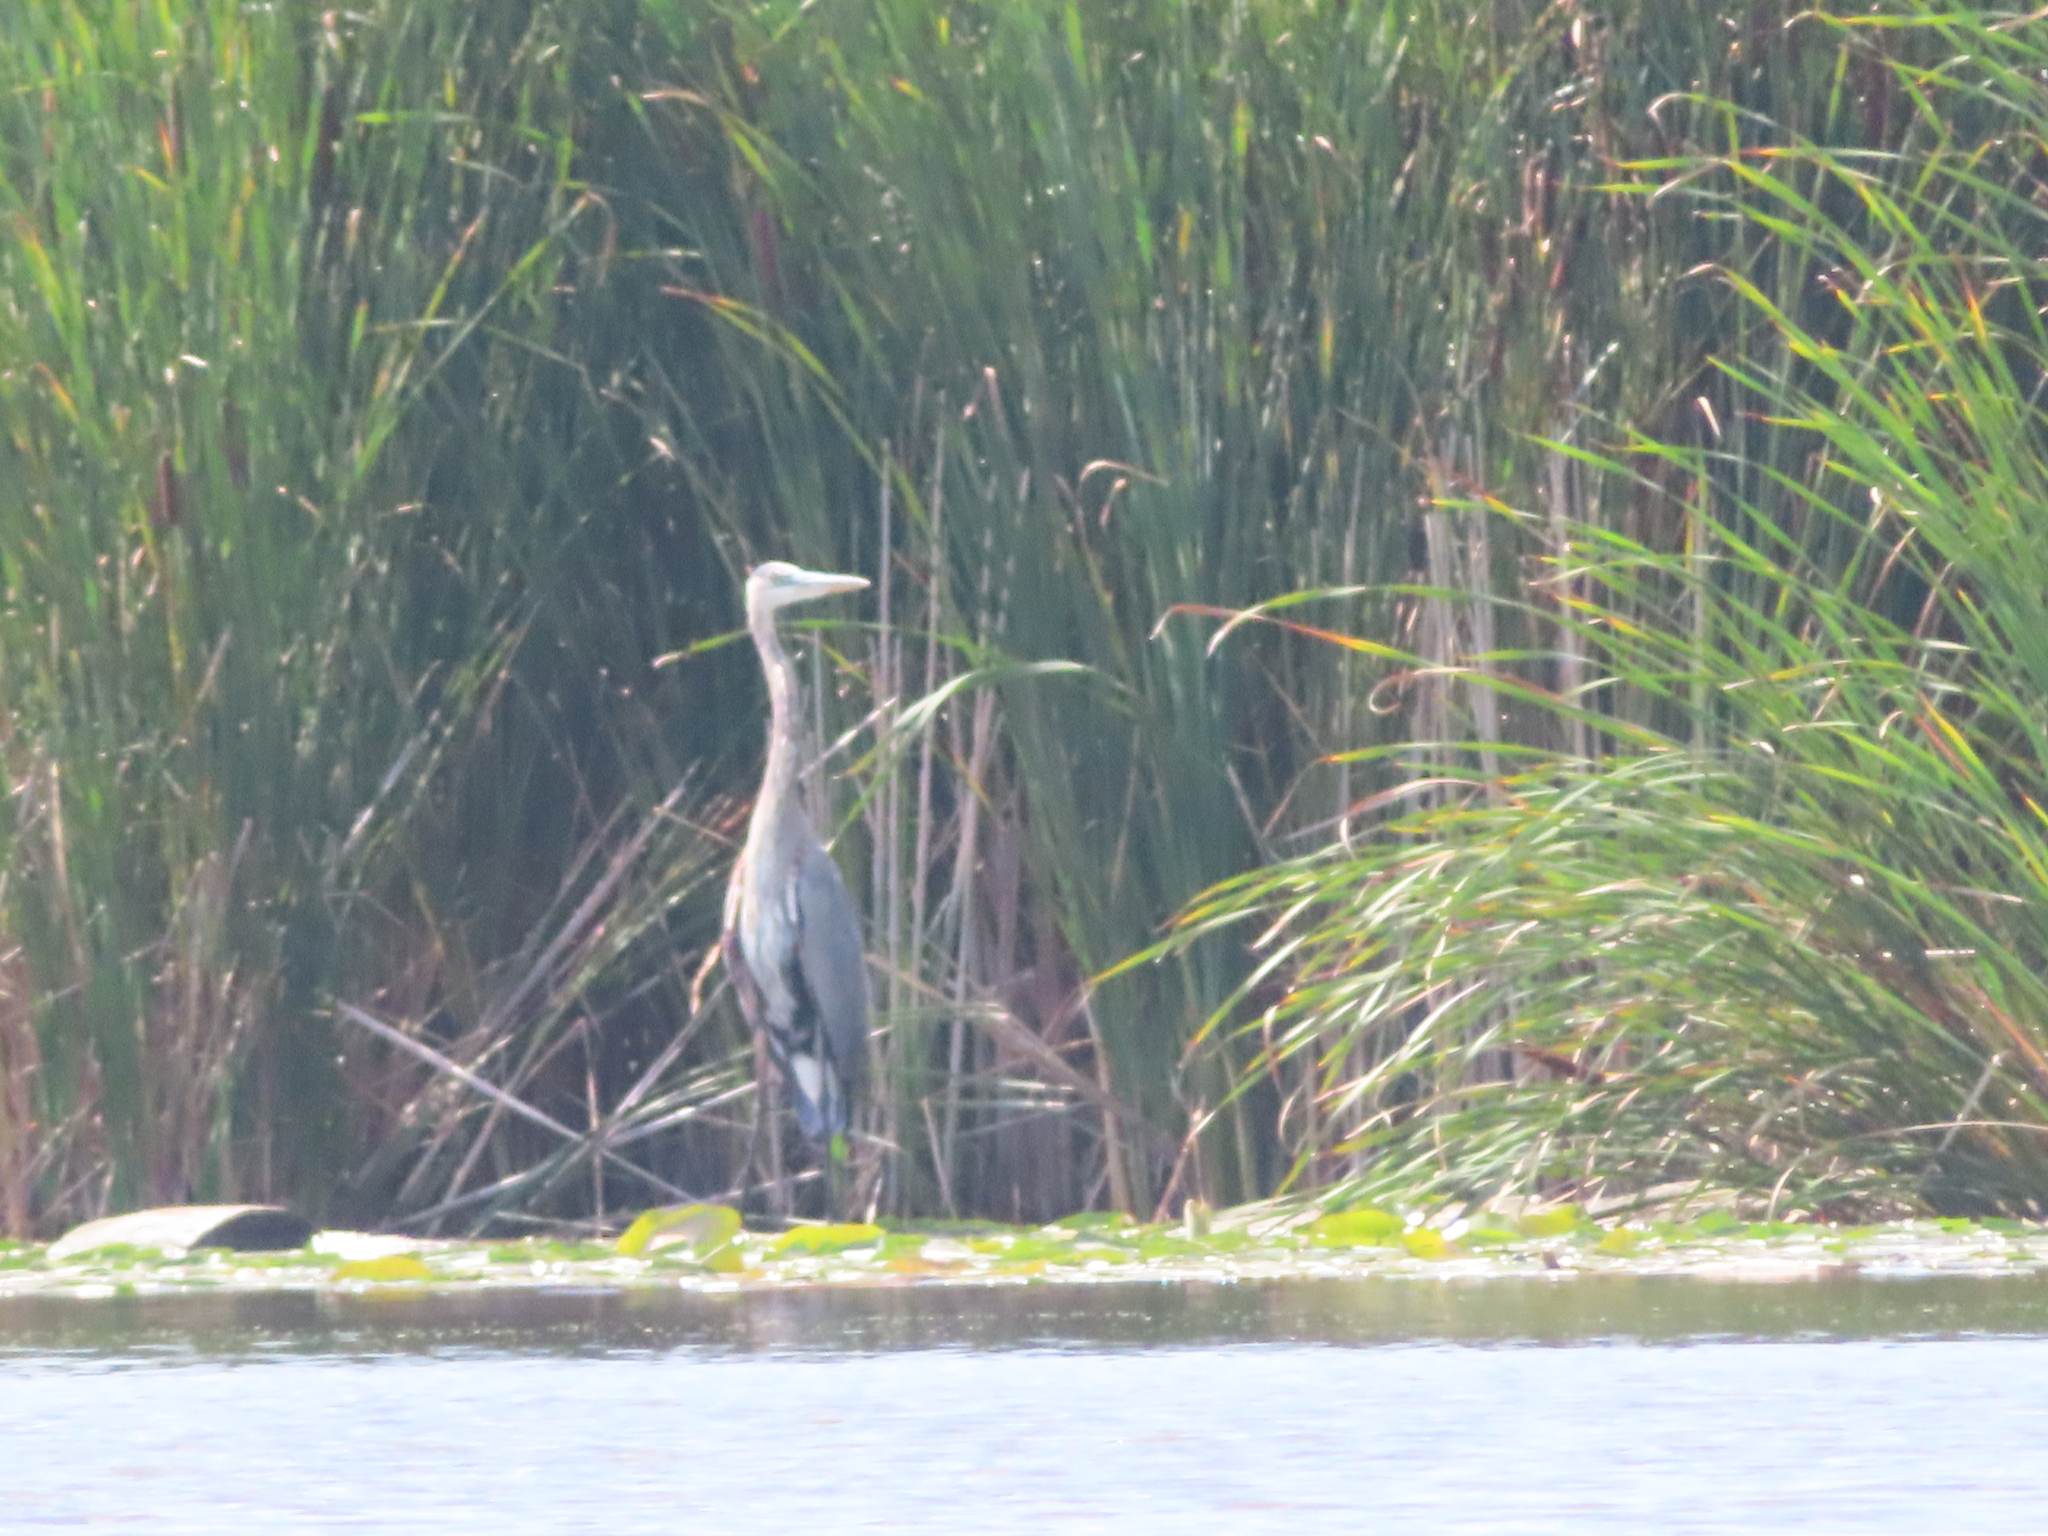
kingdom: Animalia
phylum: Chordata
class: Aves
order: Pelecaniformes
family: Ardeidae
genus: Ardea
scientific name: Ardea herodias
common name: Great blue heron
